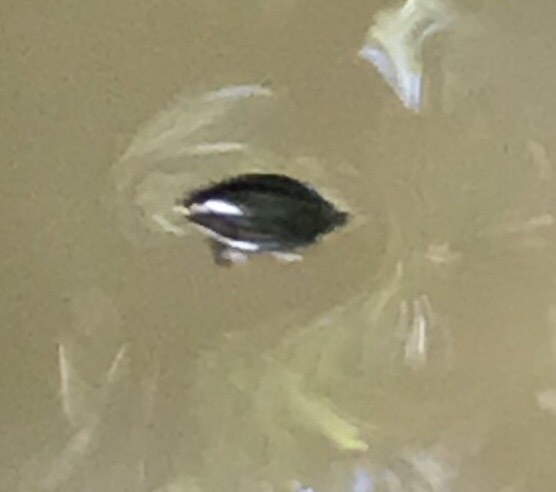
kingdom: Animalia
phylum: Arthropoda
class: Insecta
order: Coleoptera
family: Gyrinidae
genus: Dineutus
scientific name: Dineutus
